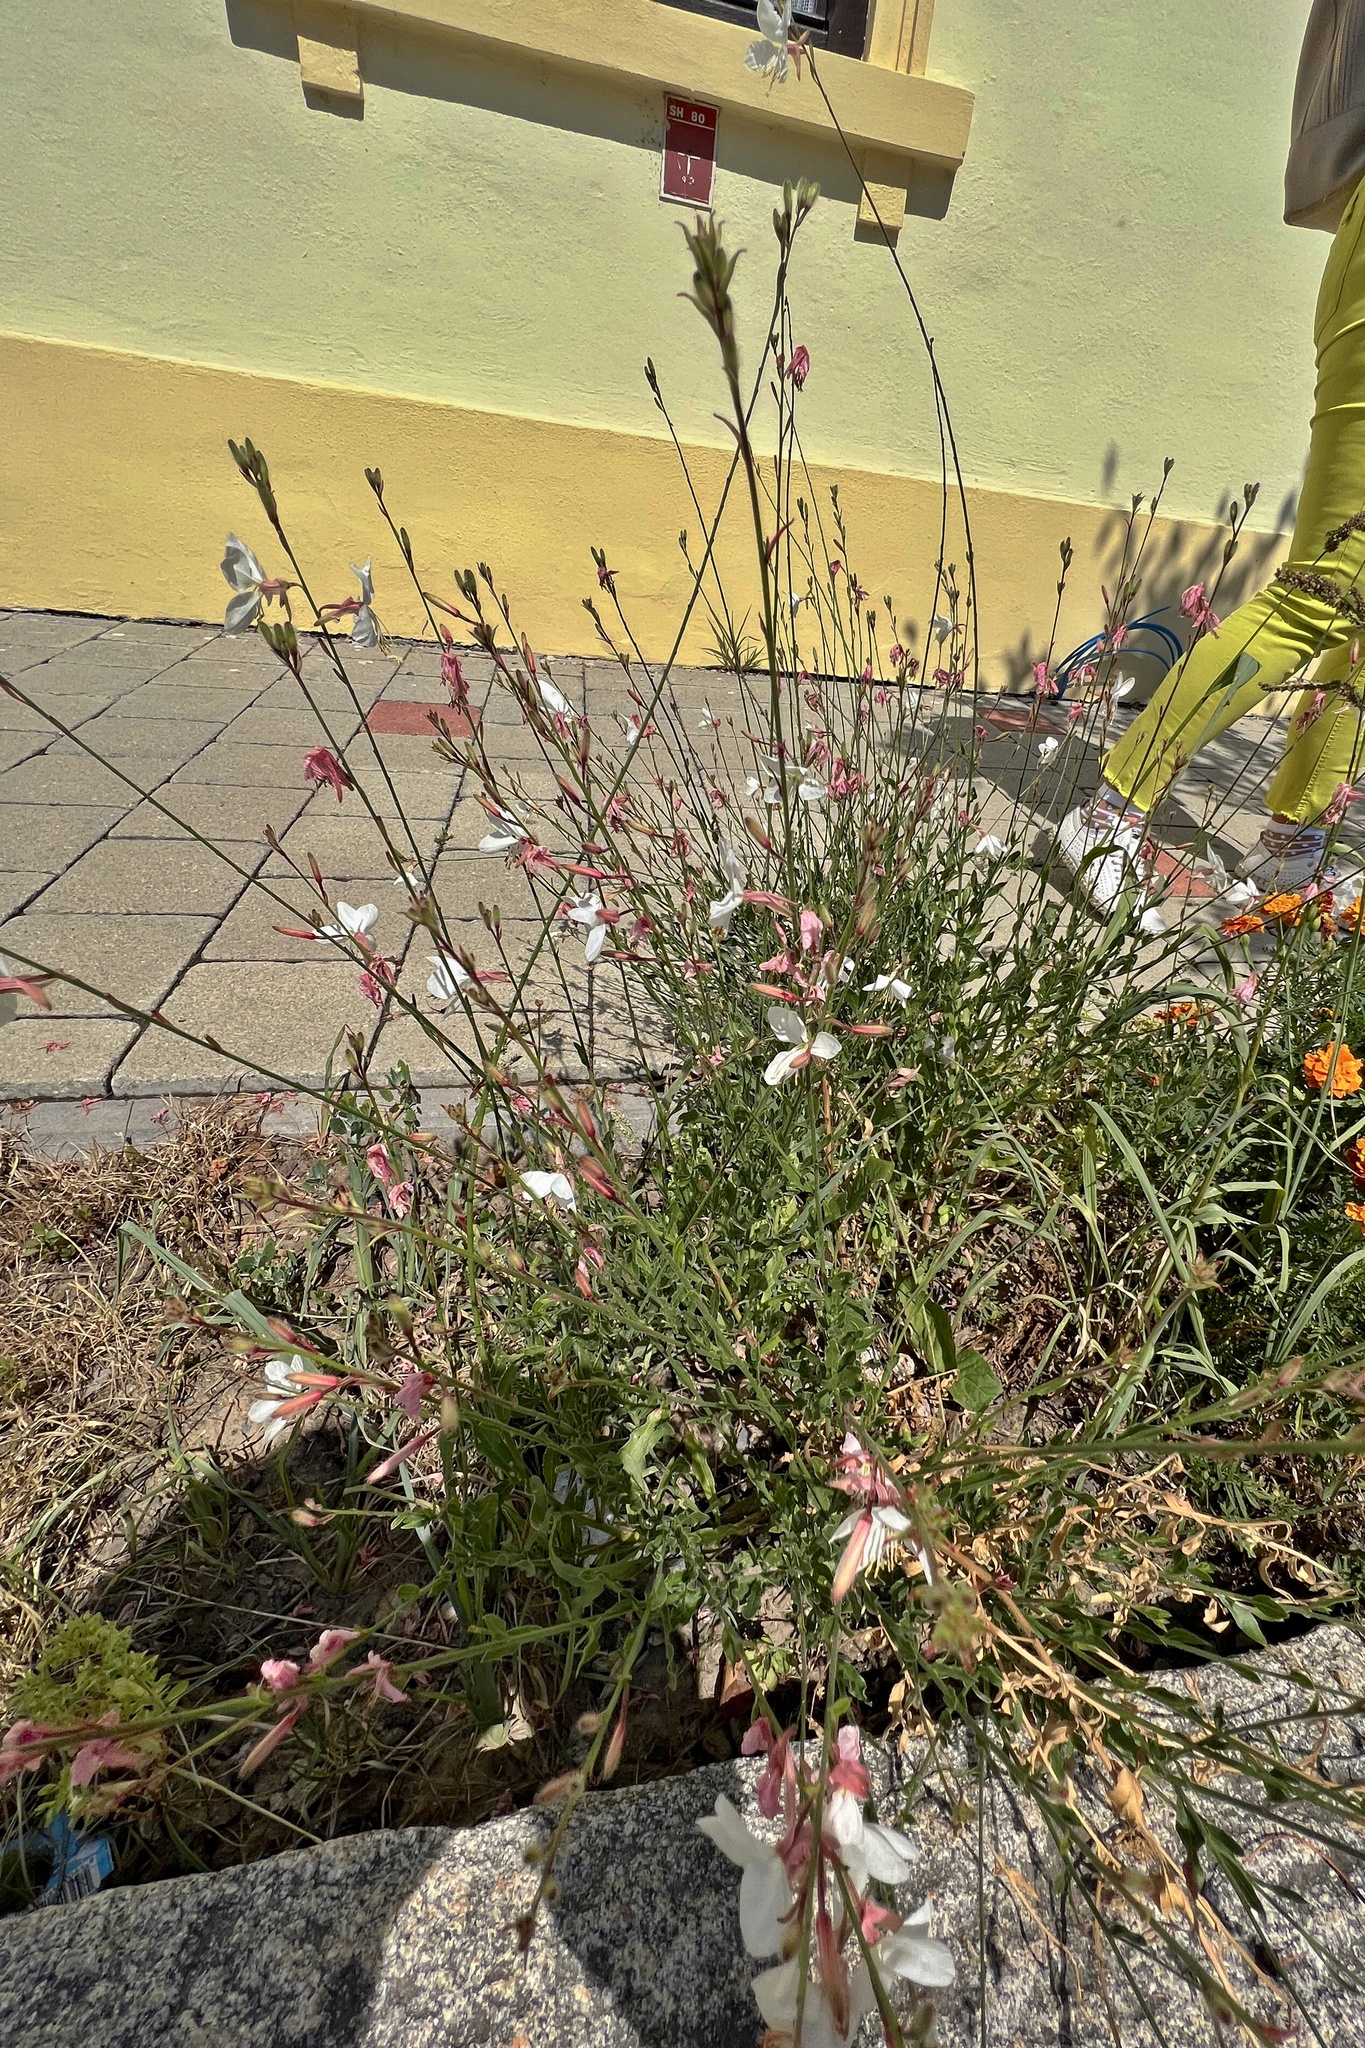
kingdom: Plantae
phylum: Tracheophyta
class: Magnoliopsida
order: Myrtales
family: Onagraceae
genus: Oenothera
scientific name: Oenothera lindheimeri
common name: Lindheimer's beeblossom
